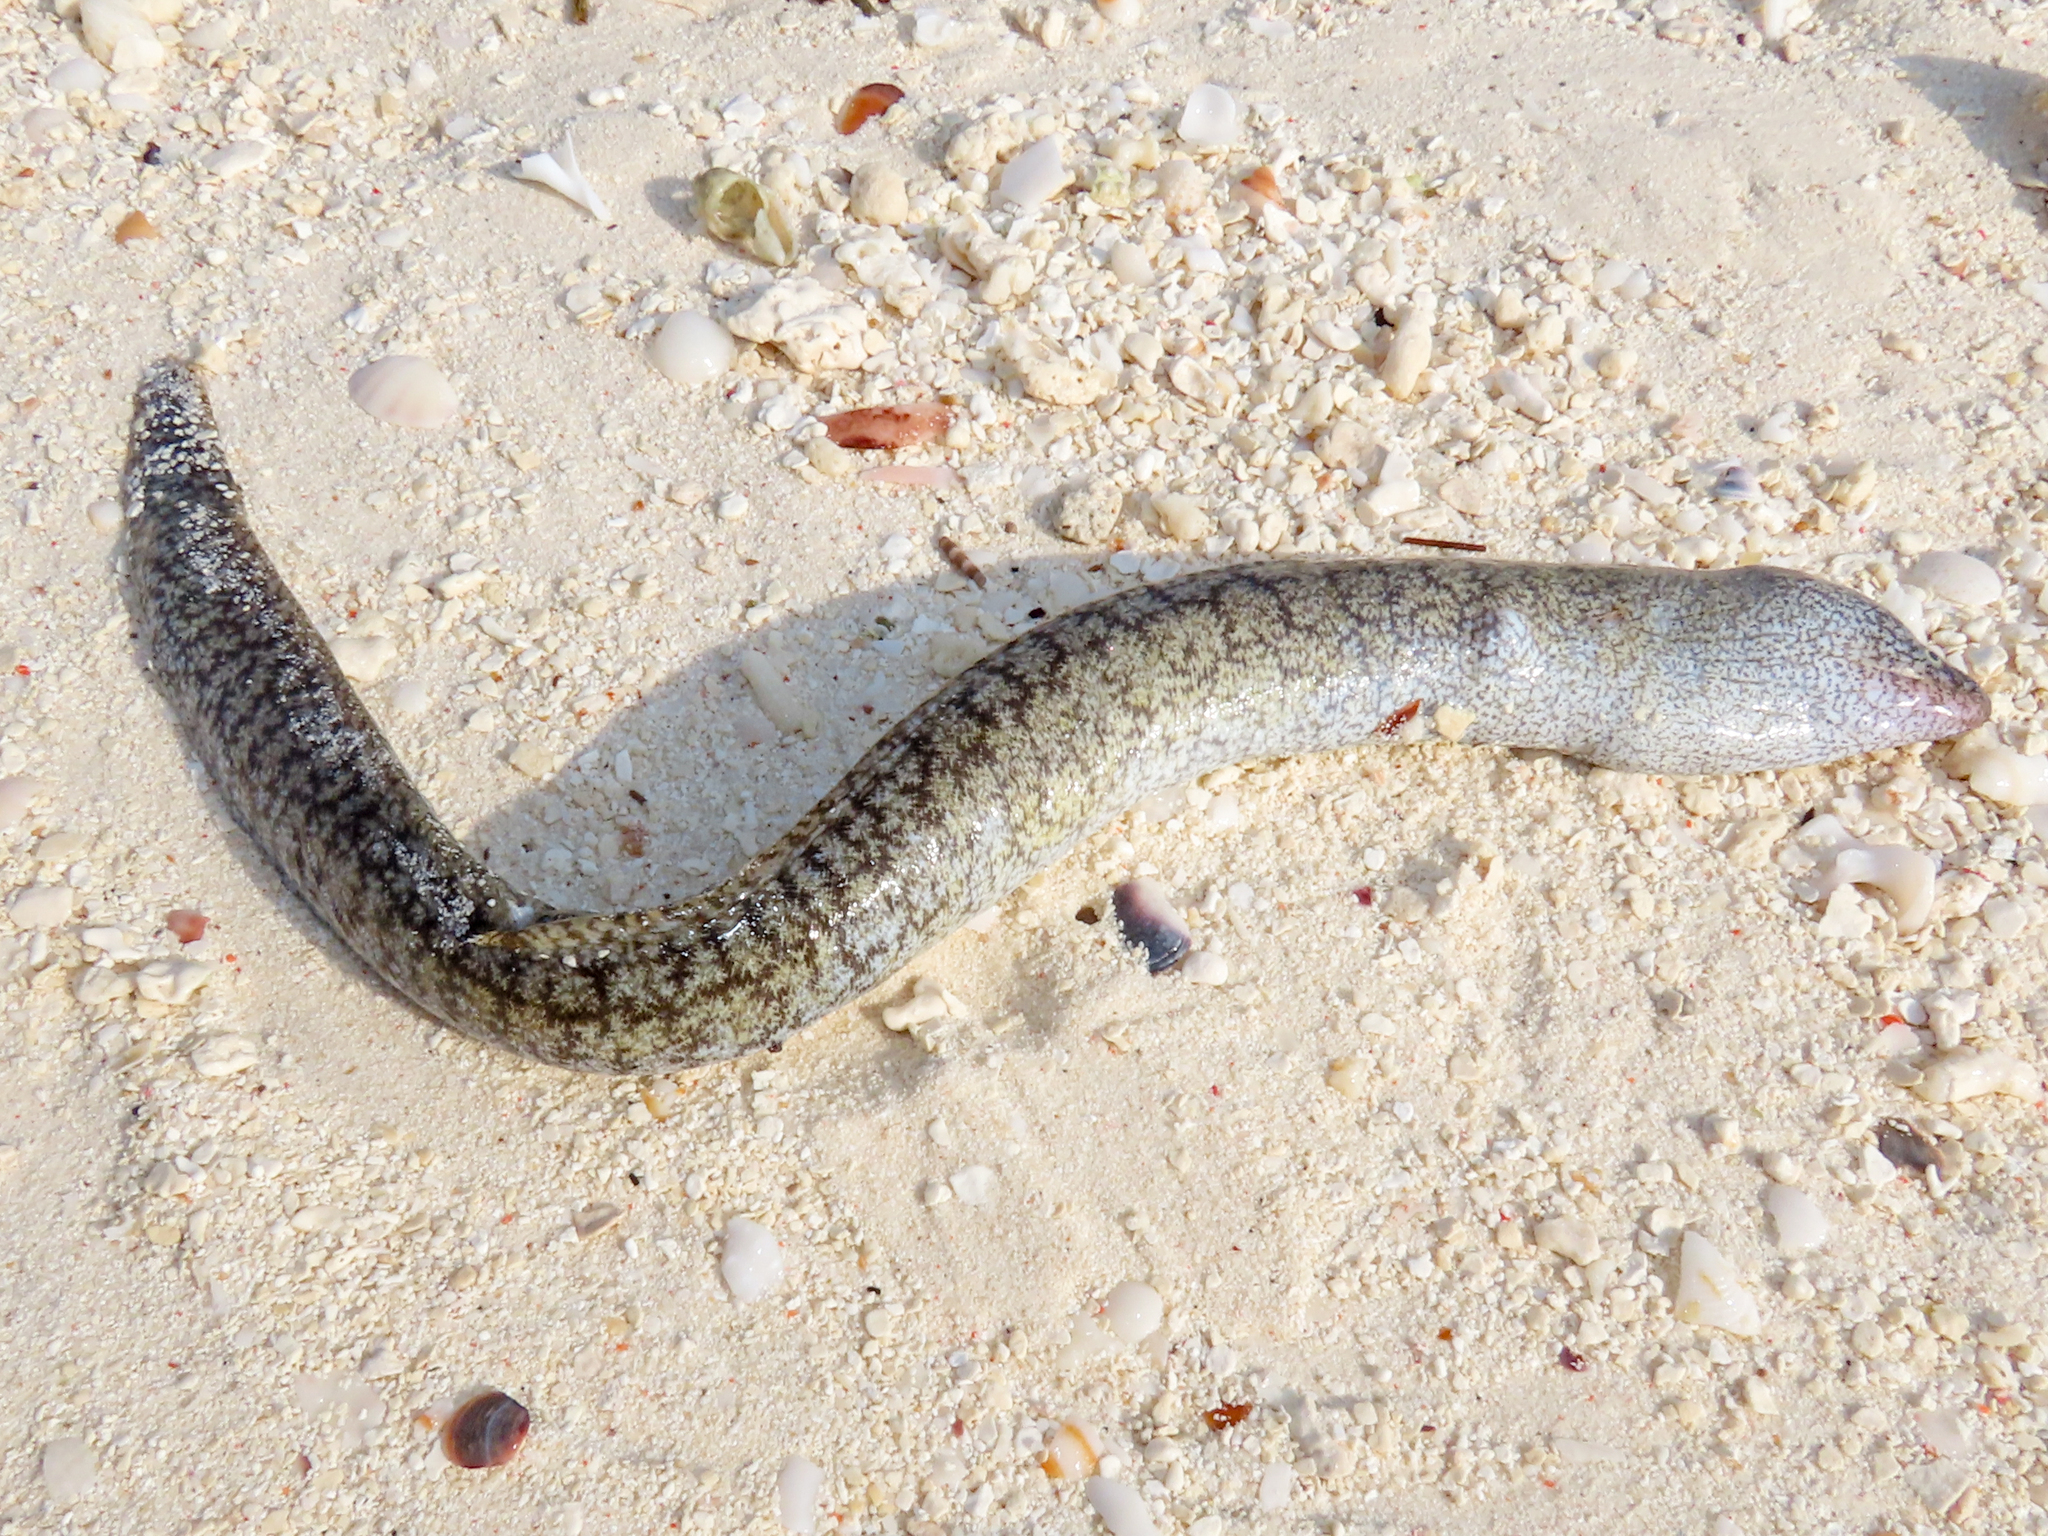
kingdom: Animalia
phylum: Chordata
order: Anguilliformes
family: Muraenidae
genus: Gymnothorax
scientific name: Gymnothorax richardsonii
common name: Richardson's moray
